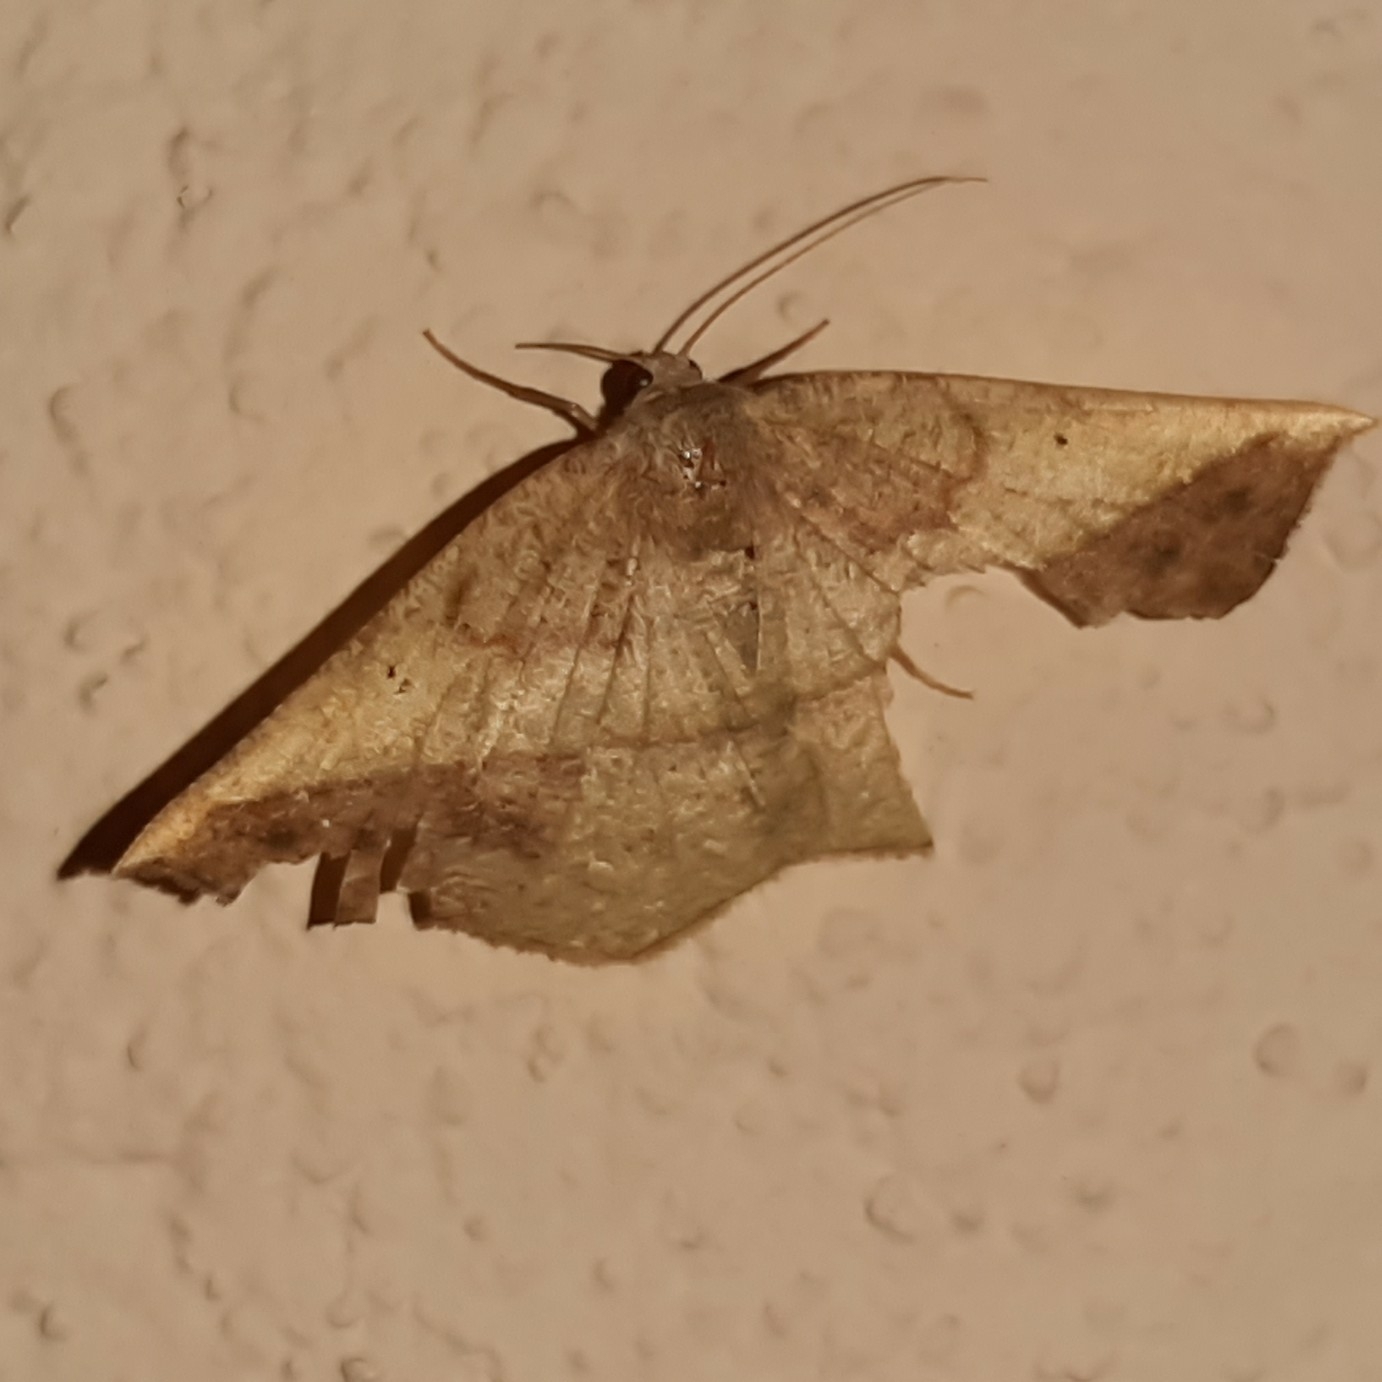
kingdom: Animalia
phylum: Arthropoda
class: Insecta
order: Lepidoptera
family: Geometridae
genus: Eusarca
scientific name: Eusarca fundaria
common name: Dark-edged eusarca moth
